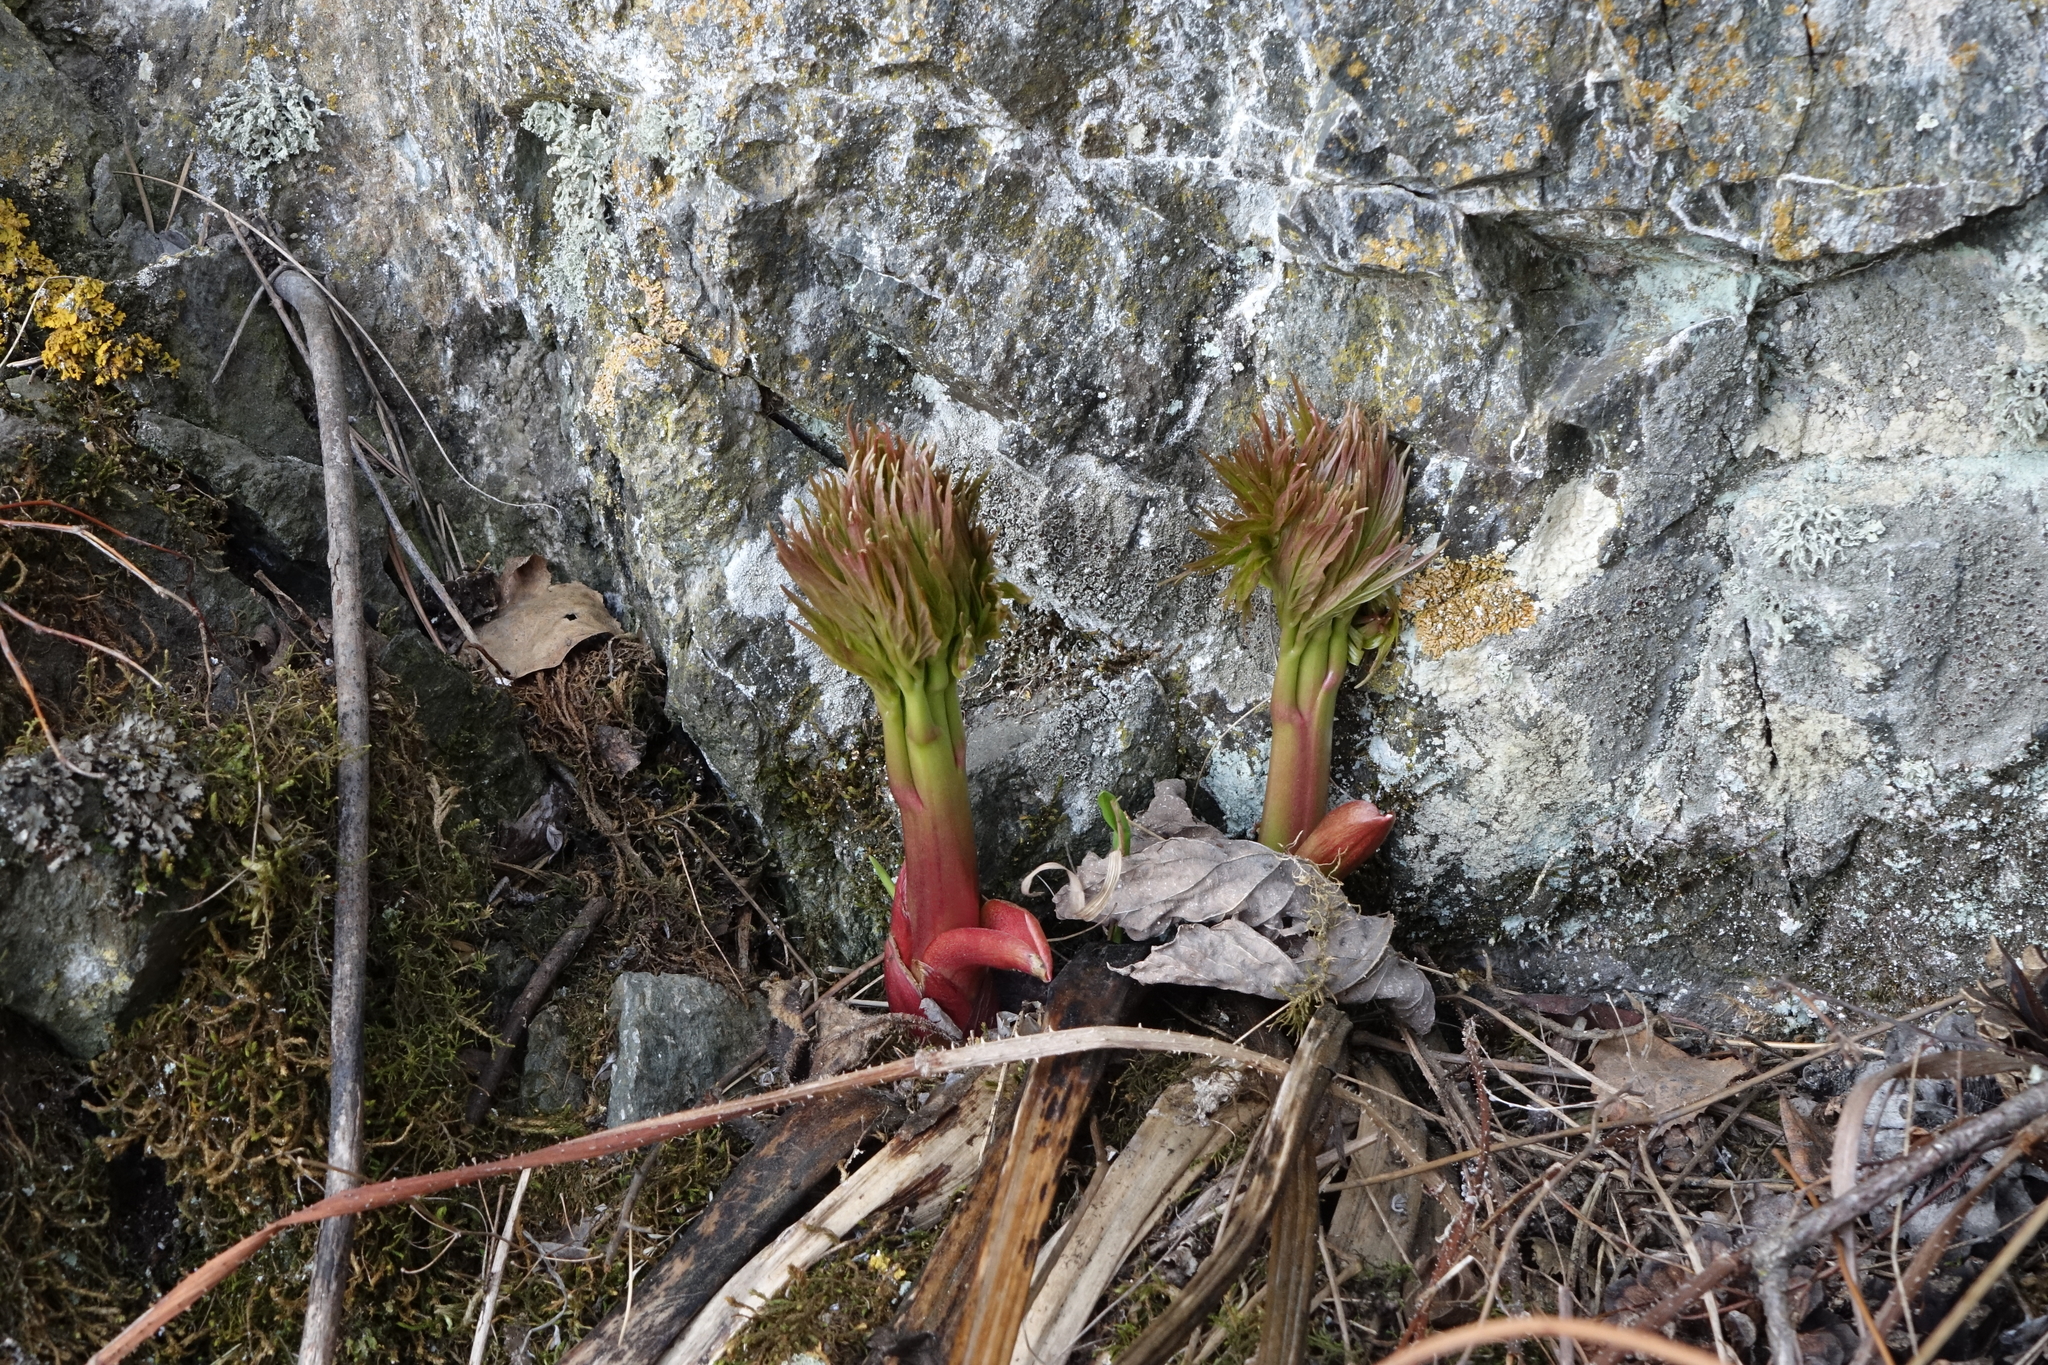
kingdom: Plantae
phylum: Tracheophyta
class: Magnoliopsida
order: Saxifragales
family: Paeoniaceae
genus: Paeonia
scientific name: Paeonia anomala
